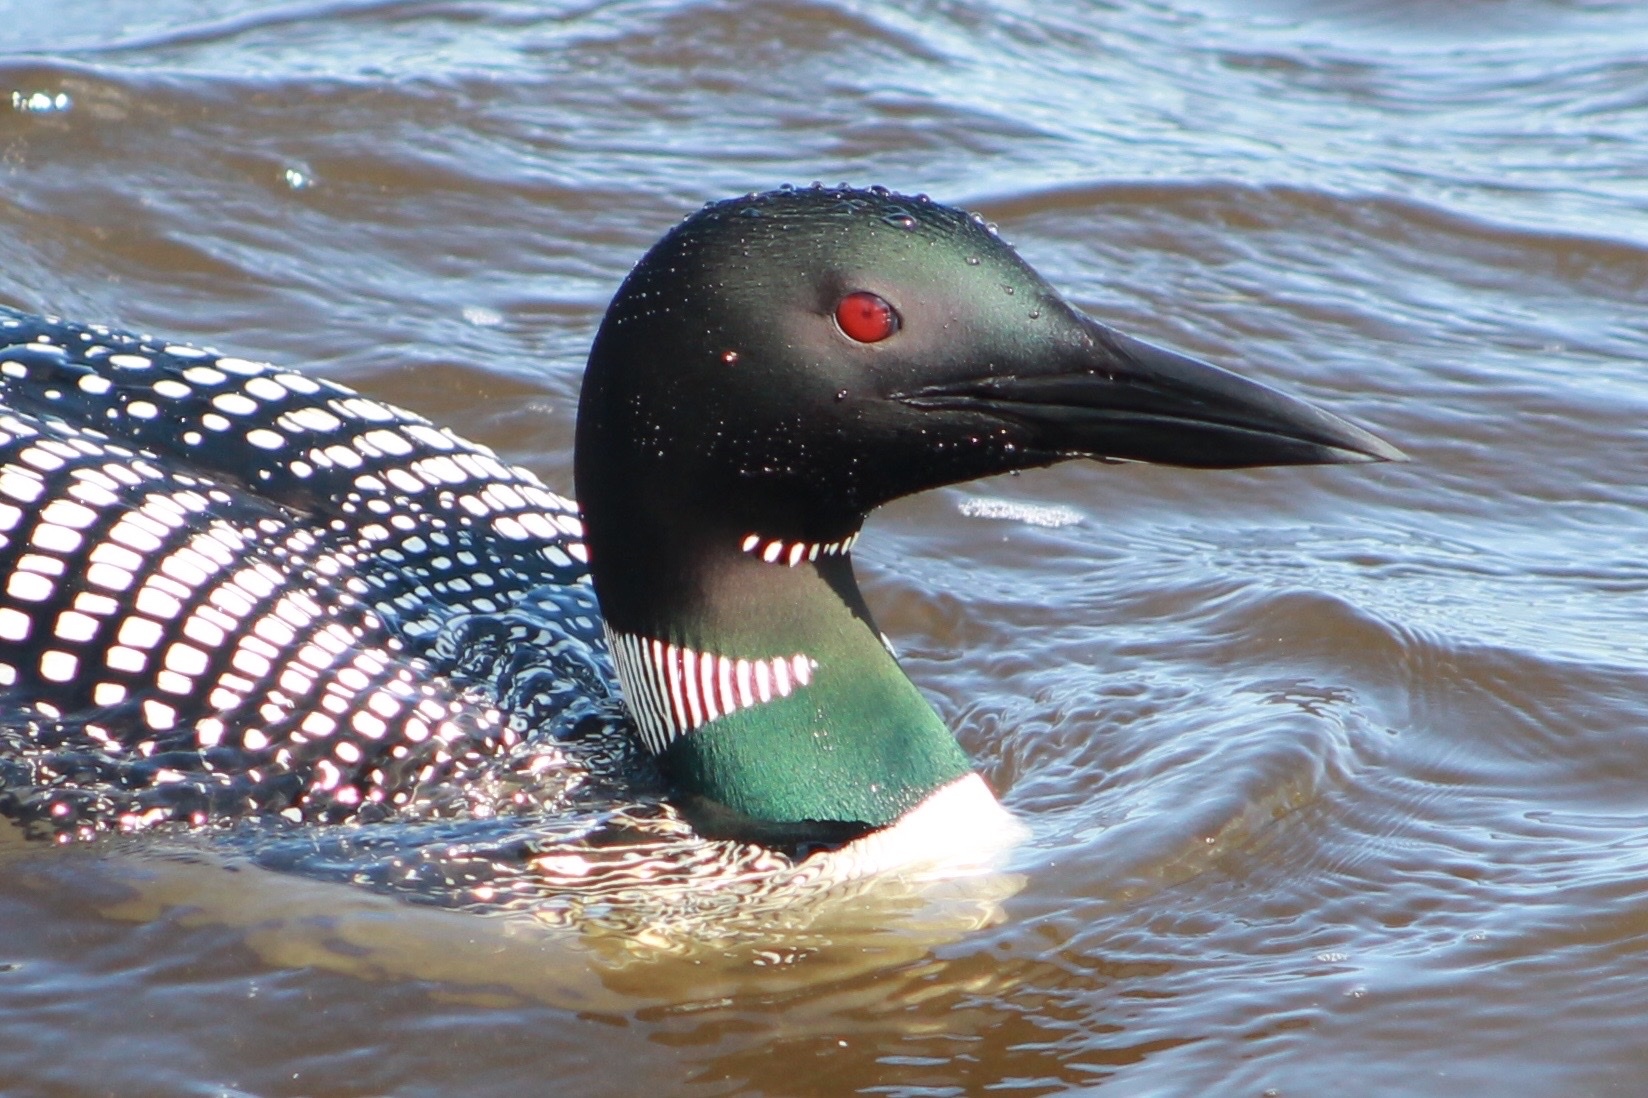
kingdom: Animalia
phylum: Chordata
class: Aves
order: Gaviiformes
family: Gaviidae
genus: Gavia
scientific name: Gavia immer
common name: Common loon
